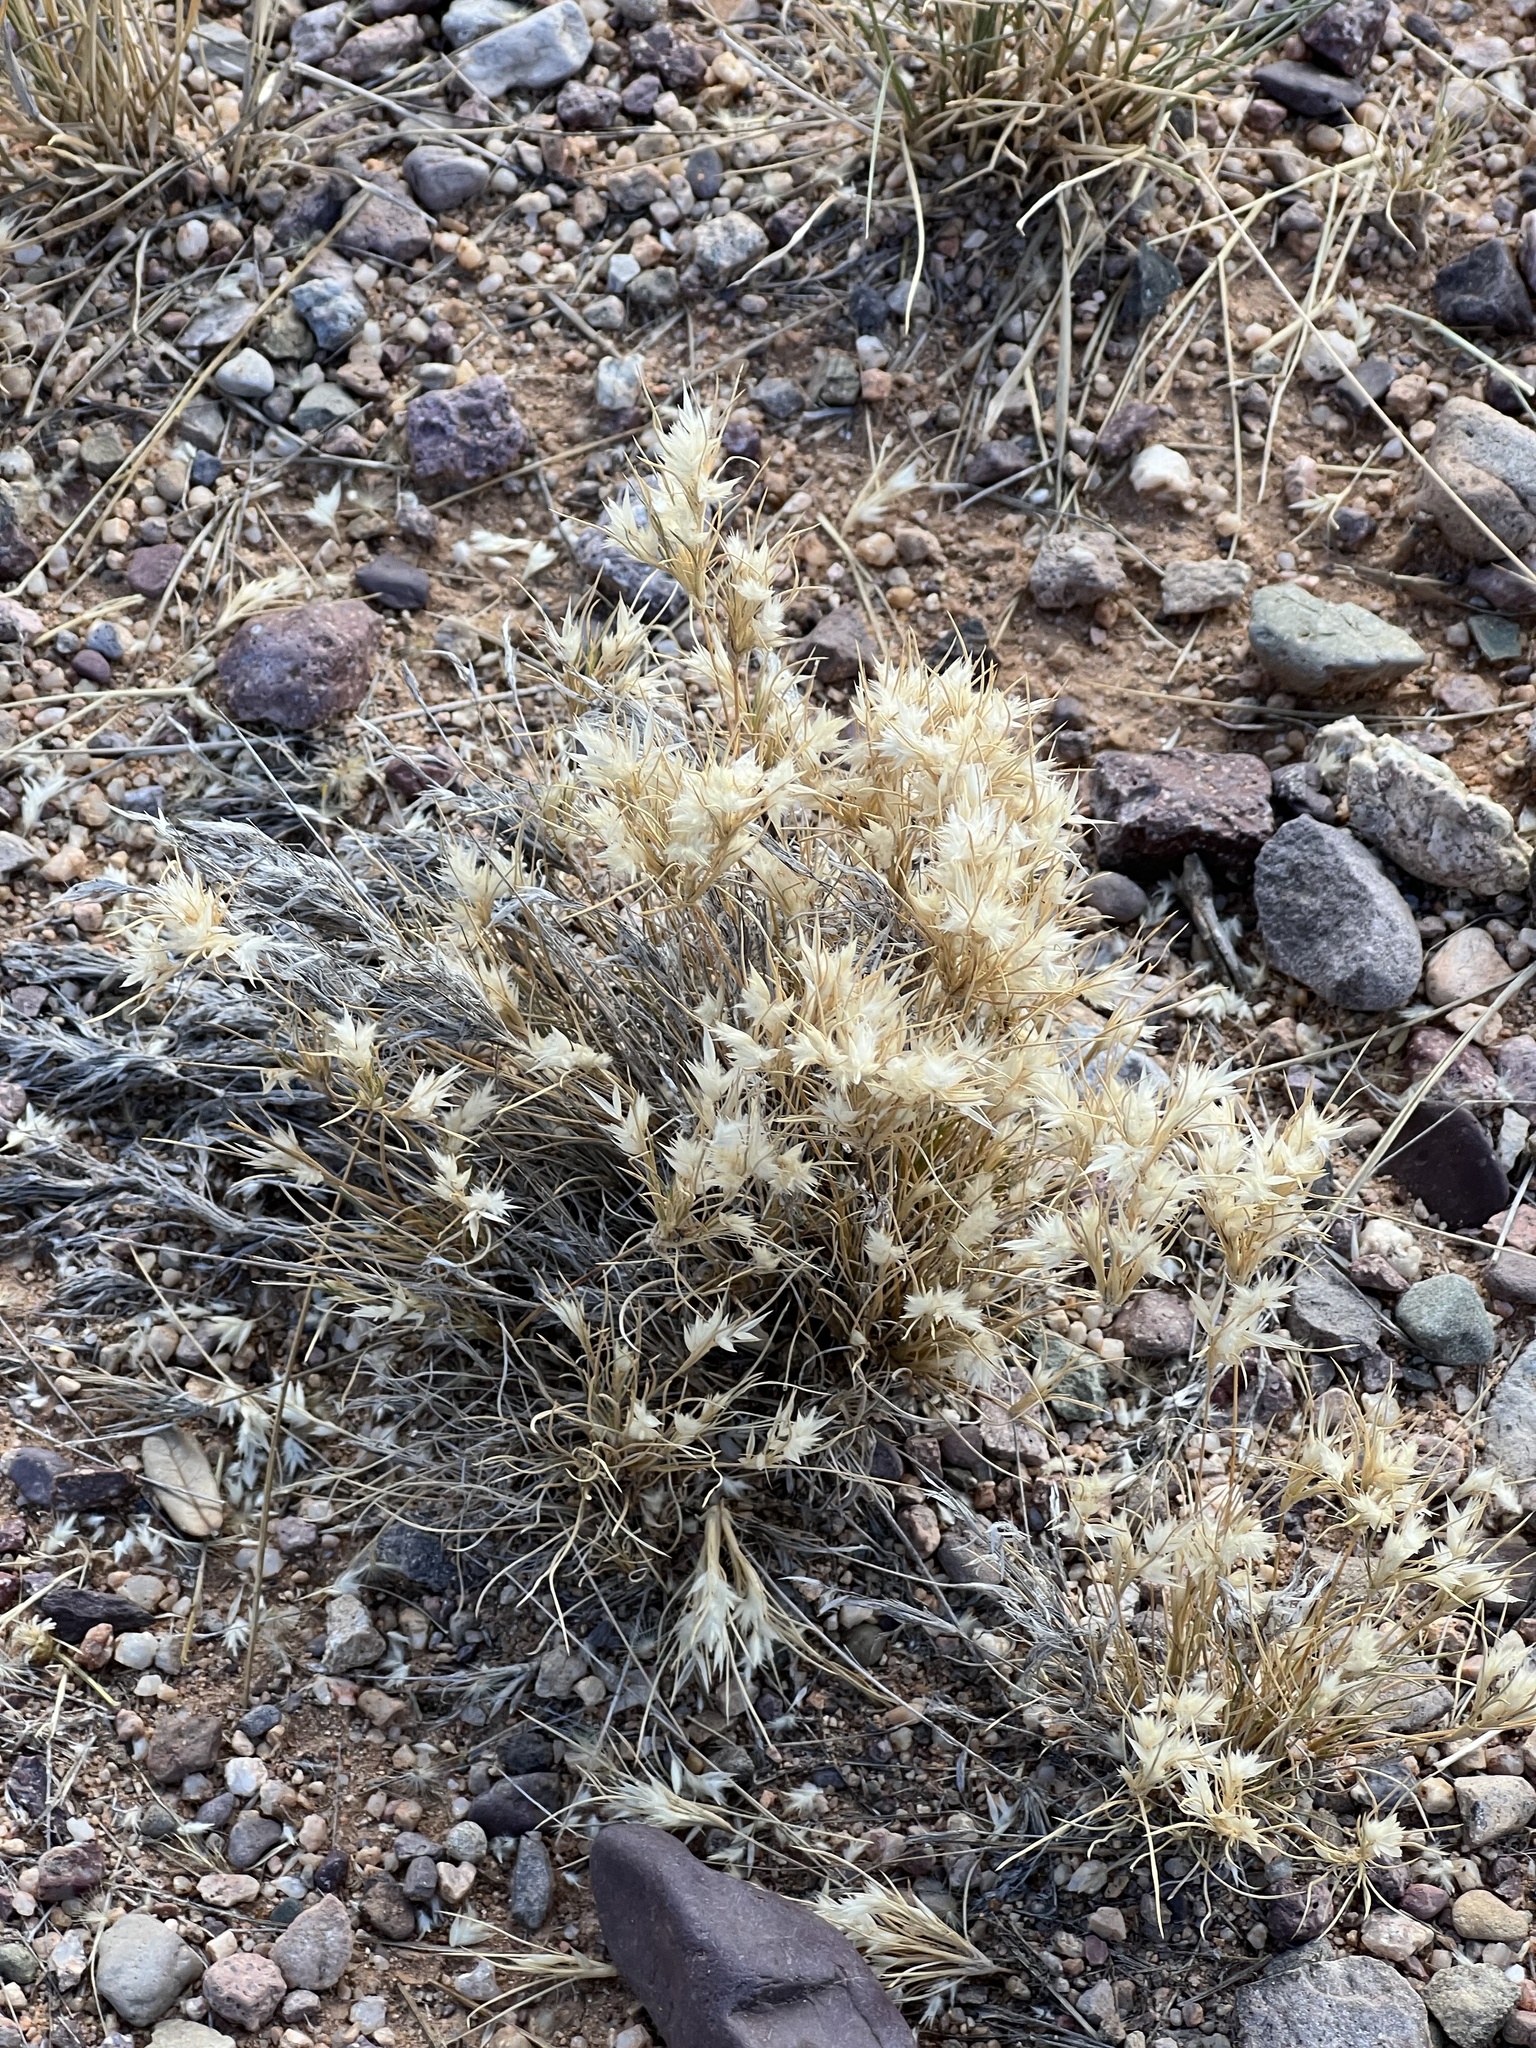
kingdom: Plantae
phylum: Tracheophyta
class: Liliopsida
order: Poales
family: Poaceae
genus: Dasyochloa
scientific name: Dasyochloa pulchella
